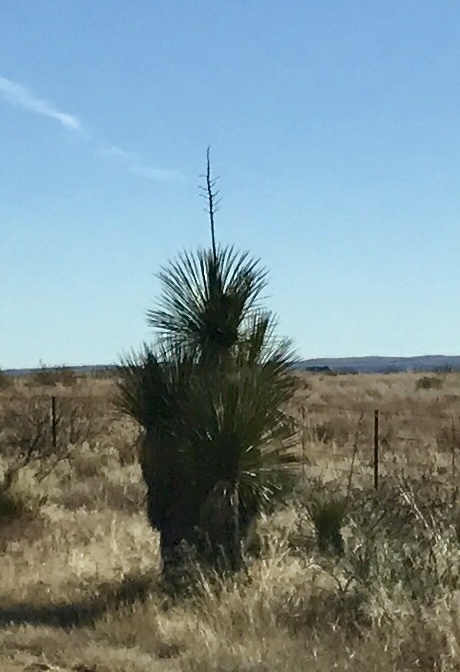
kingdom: Plantae
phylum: Tracheophyta
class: Liliopsida
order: Asparagales
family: Asparagaceae
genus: Yucca
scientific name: Yucca elata
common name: Palmella
